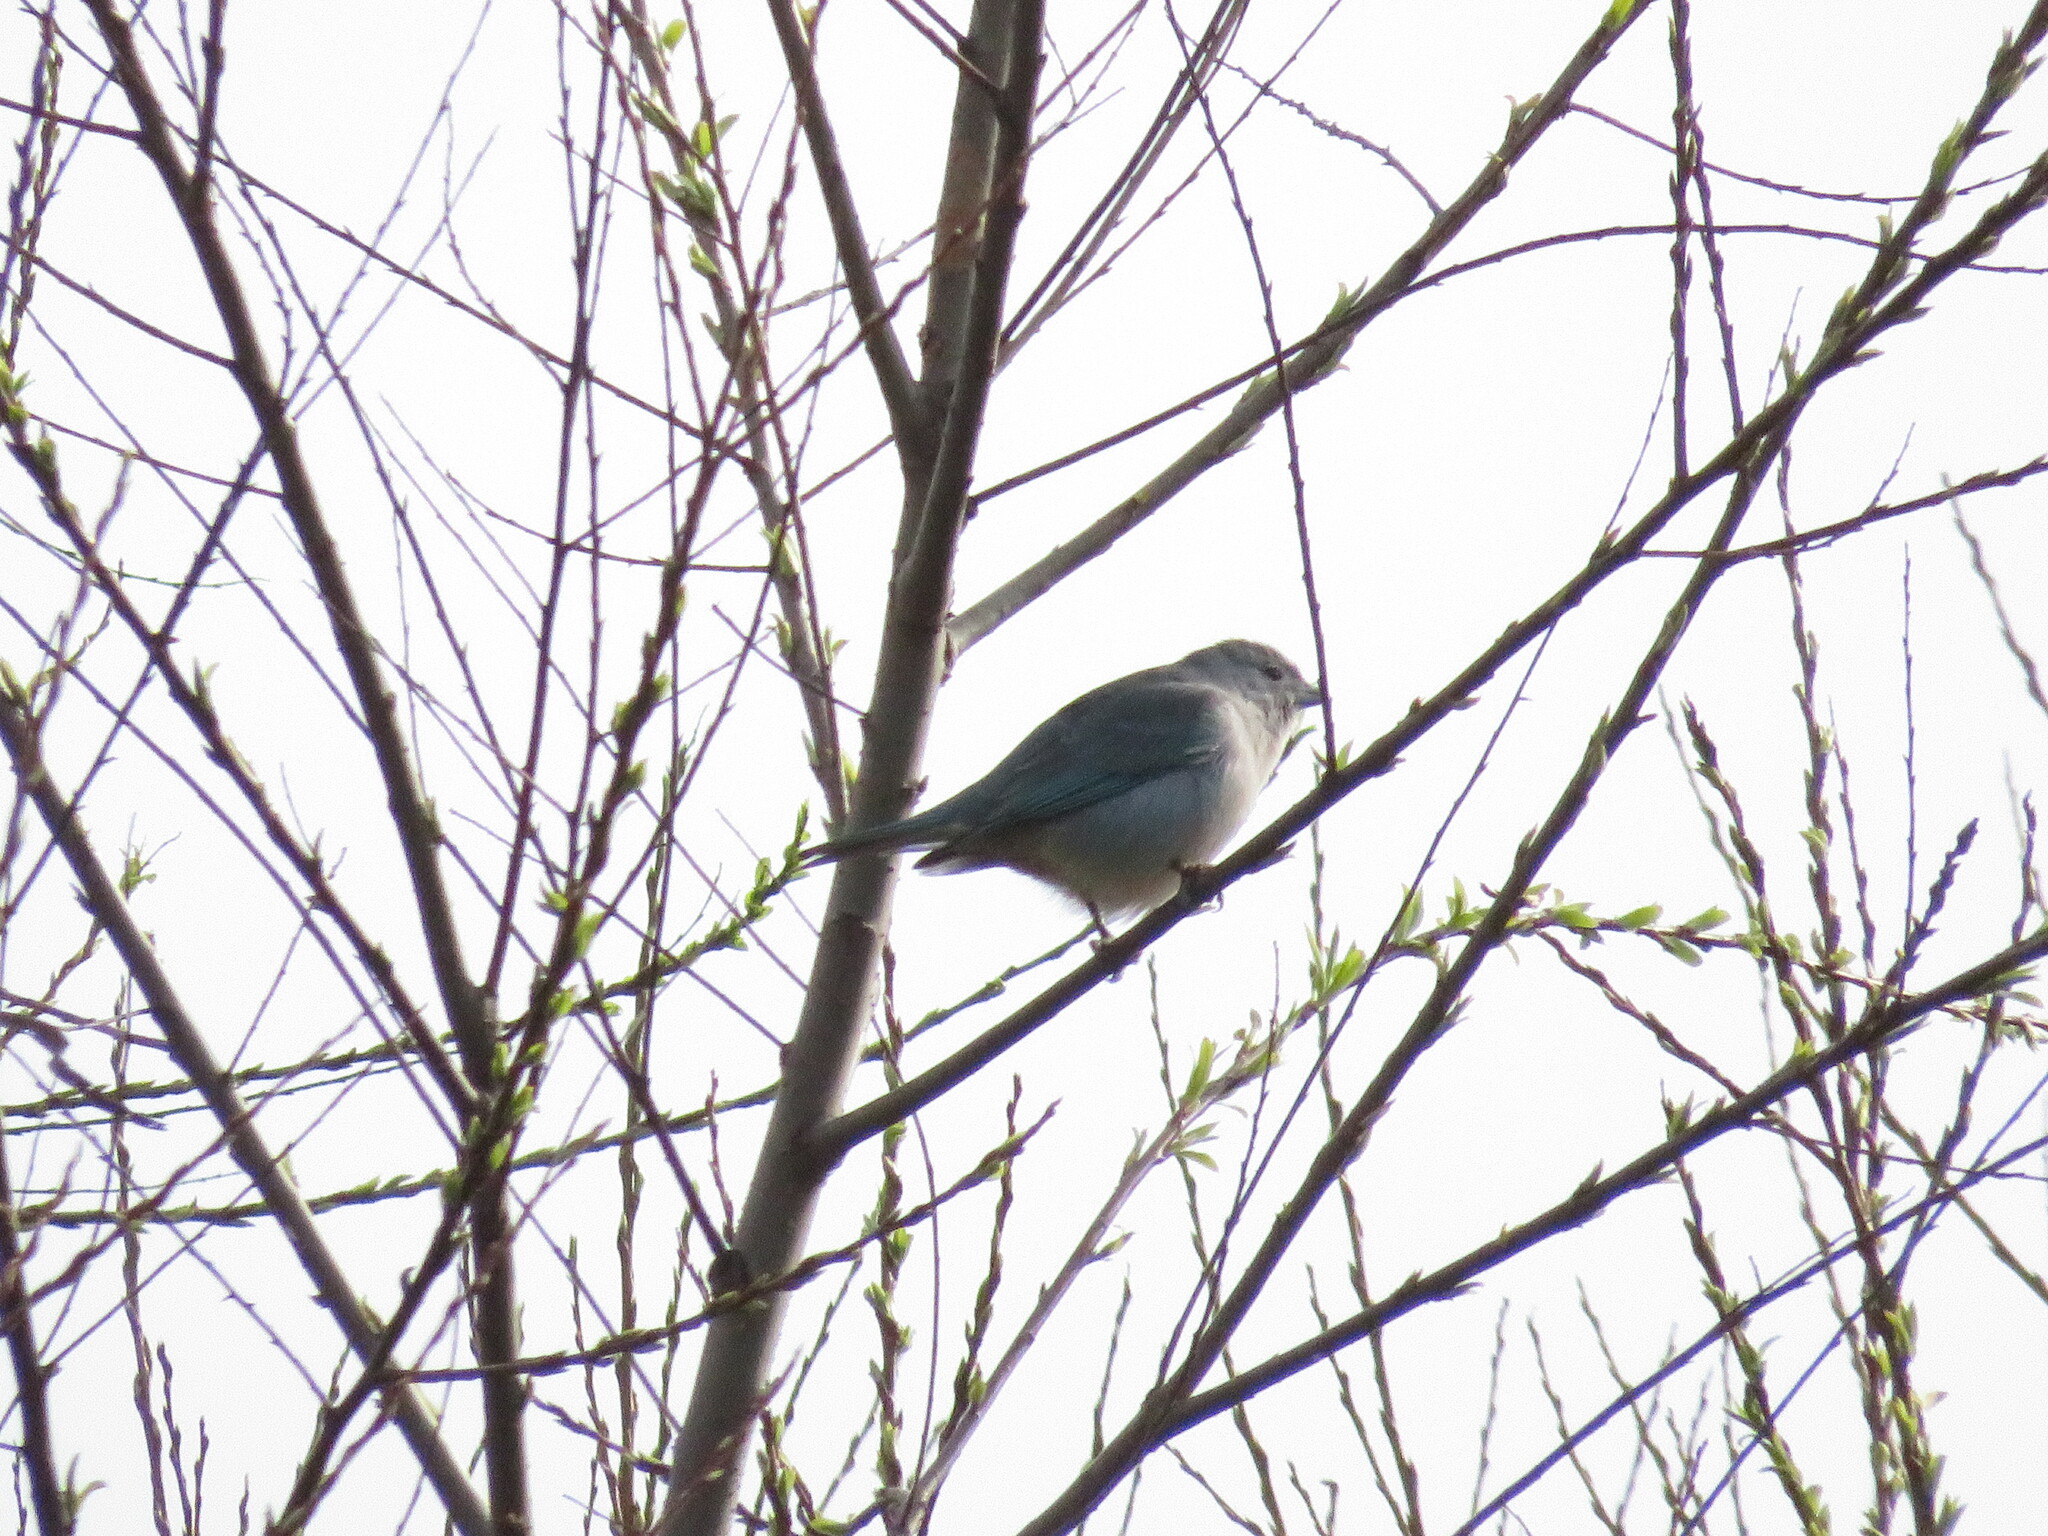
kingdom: Animalia
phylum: Chordata
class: Aves
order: Passeriformes
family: Thraupidae
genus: Thraupis
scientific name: Thraupis sayaca
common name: Sayaca tanager
